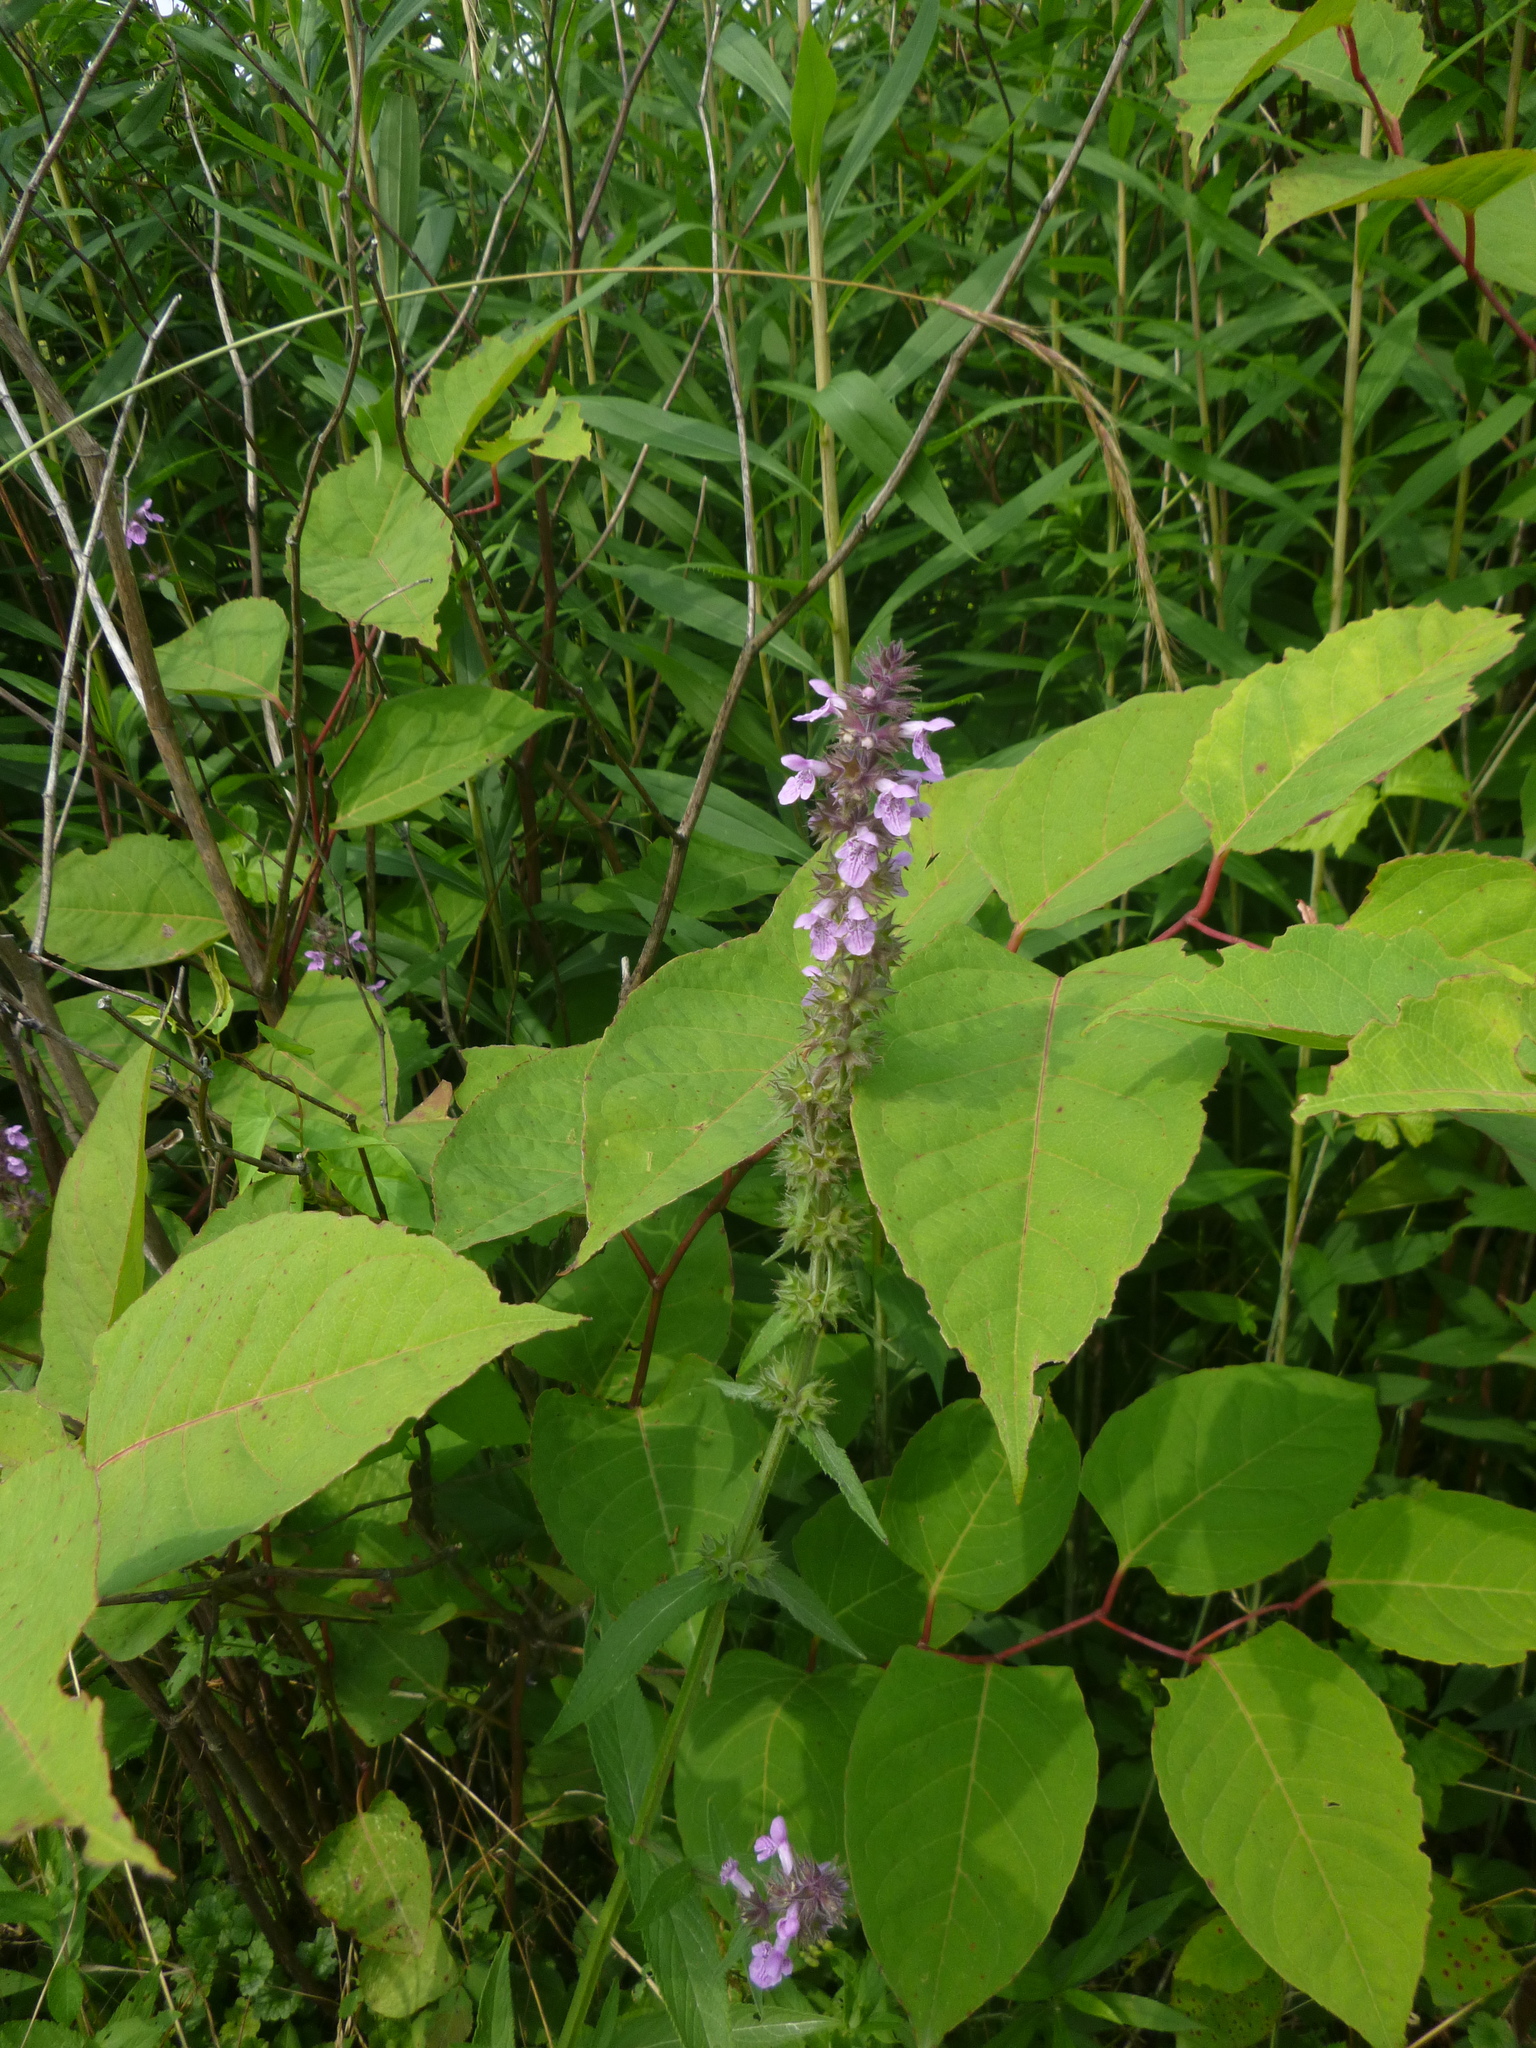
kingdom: Plantae
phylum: Tracheophyta
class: Magnoliopsida
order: Lamiales
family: Lamiaceae
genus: Stachys
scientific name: Stachys palustris
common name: Marsh woundwort
